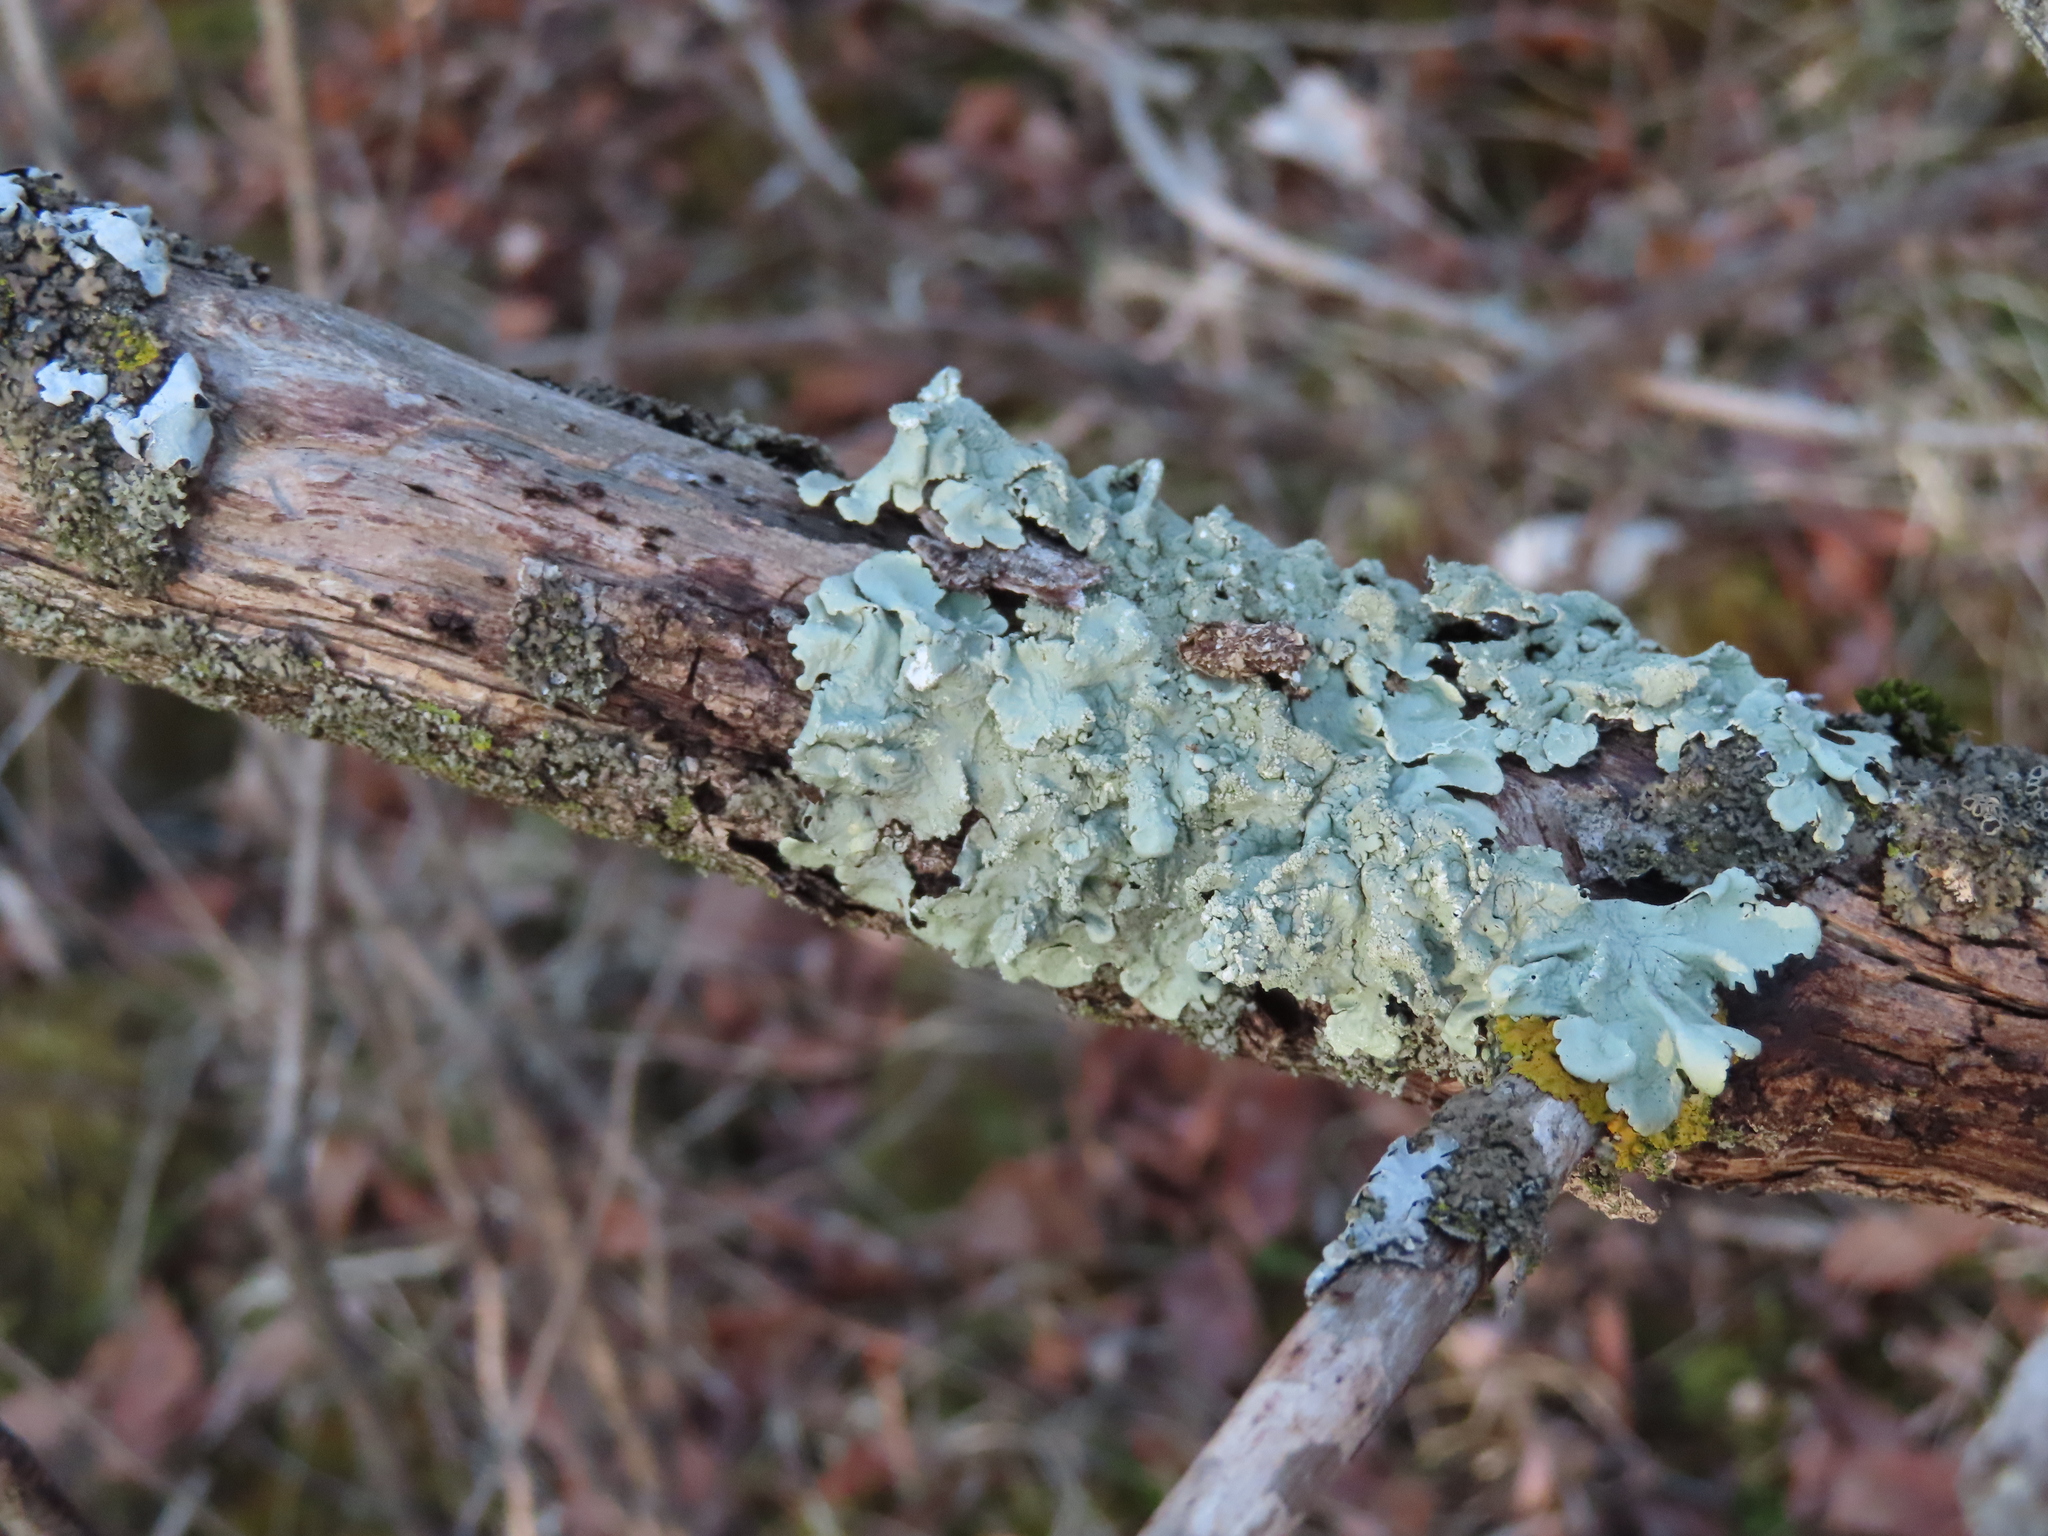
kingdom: Fungi
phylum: Ascomycota
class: Lecanoromycetes
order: Lecanorales
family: Parmeliaceae
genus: Flavoparmelia
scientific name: Flavoparmelia caperata
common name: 40-mile per hour lichen
